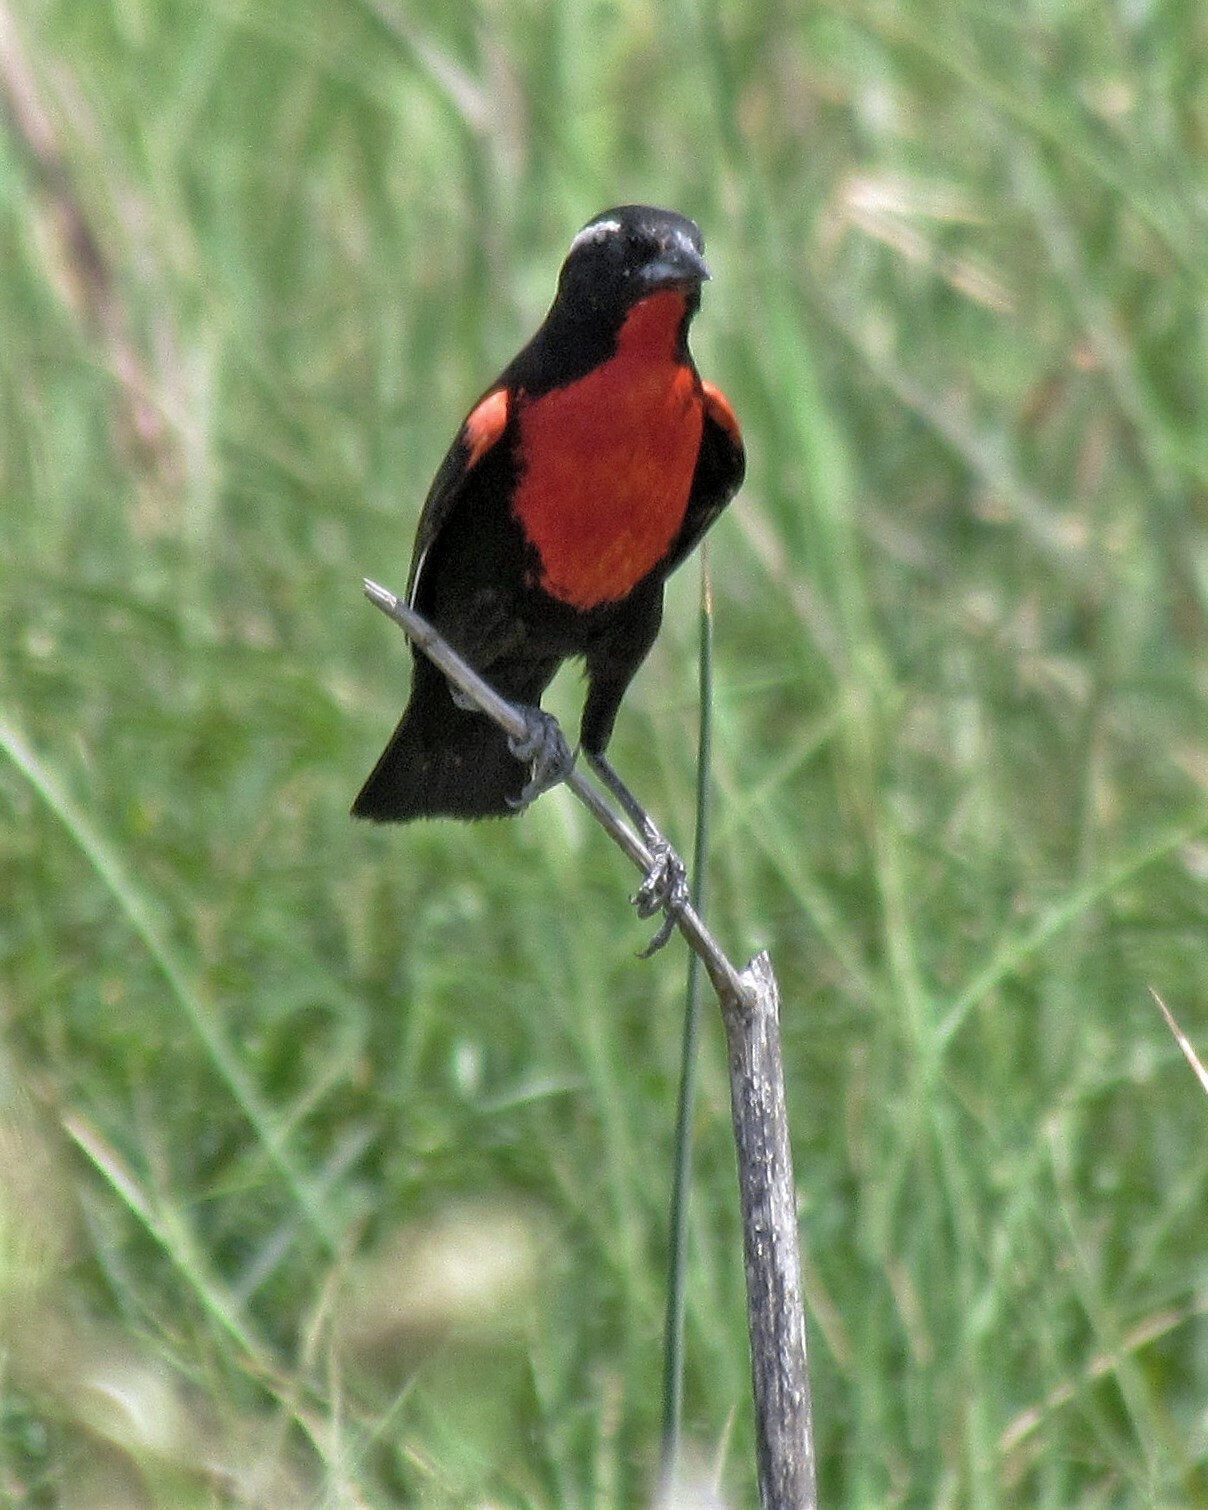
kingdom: Animalia
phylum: Chordata
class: Aves
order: Passeriformes
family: Icteridae
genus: Sturnella
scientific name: Sturnella superciliaris
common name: White-browed blackbird
